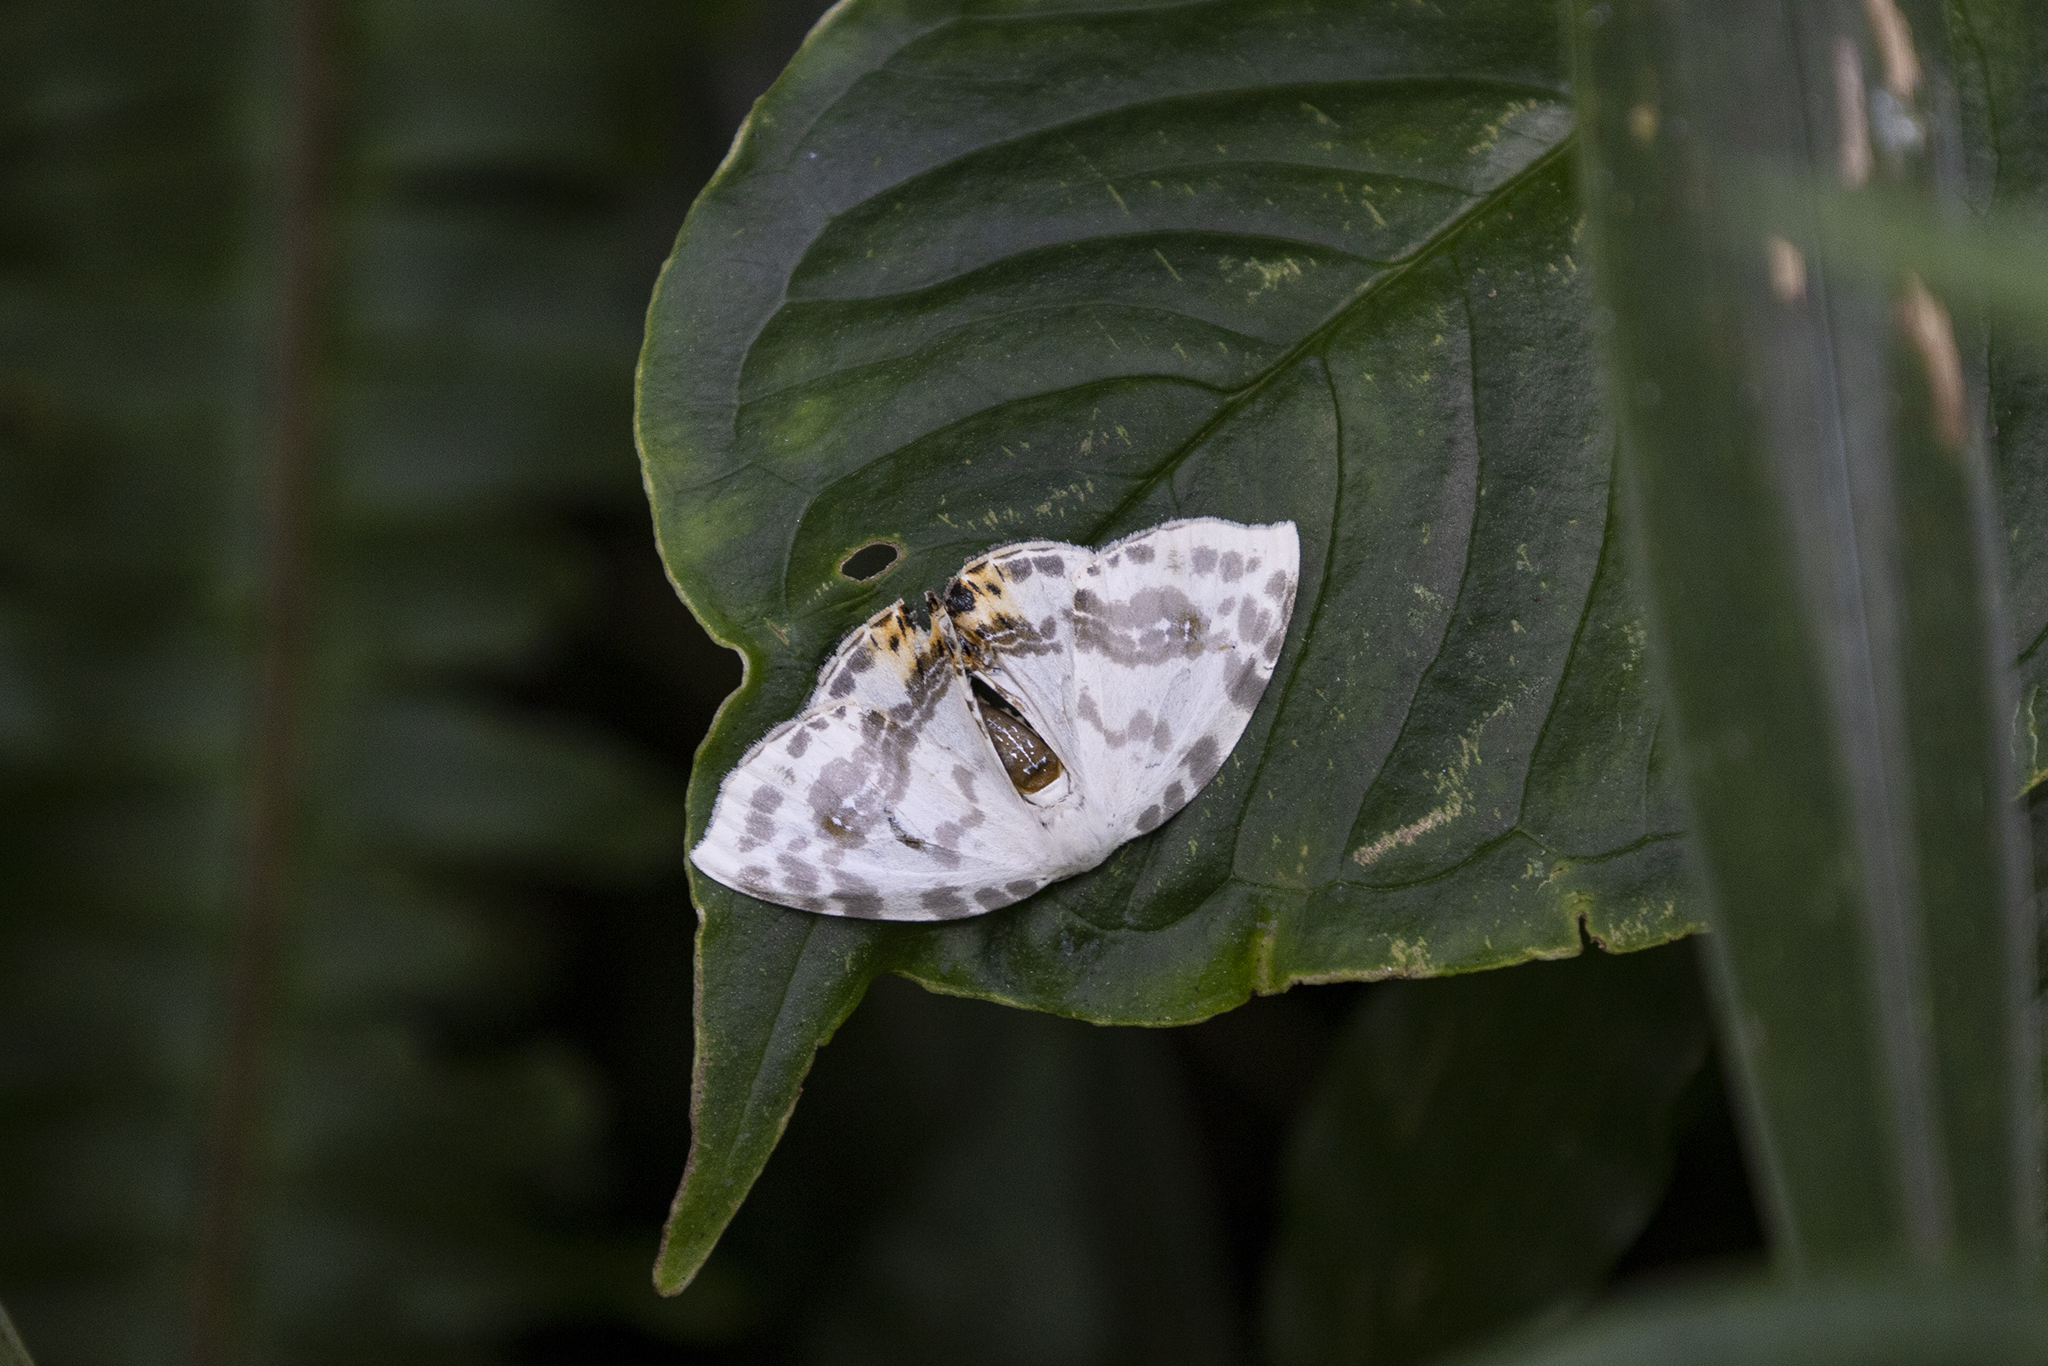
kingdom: Animalia
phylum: Arthropoda
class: Insecta
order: Lepidoptera
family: Drepanidae
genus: Sewa
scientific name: Sewa orbiferata
